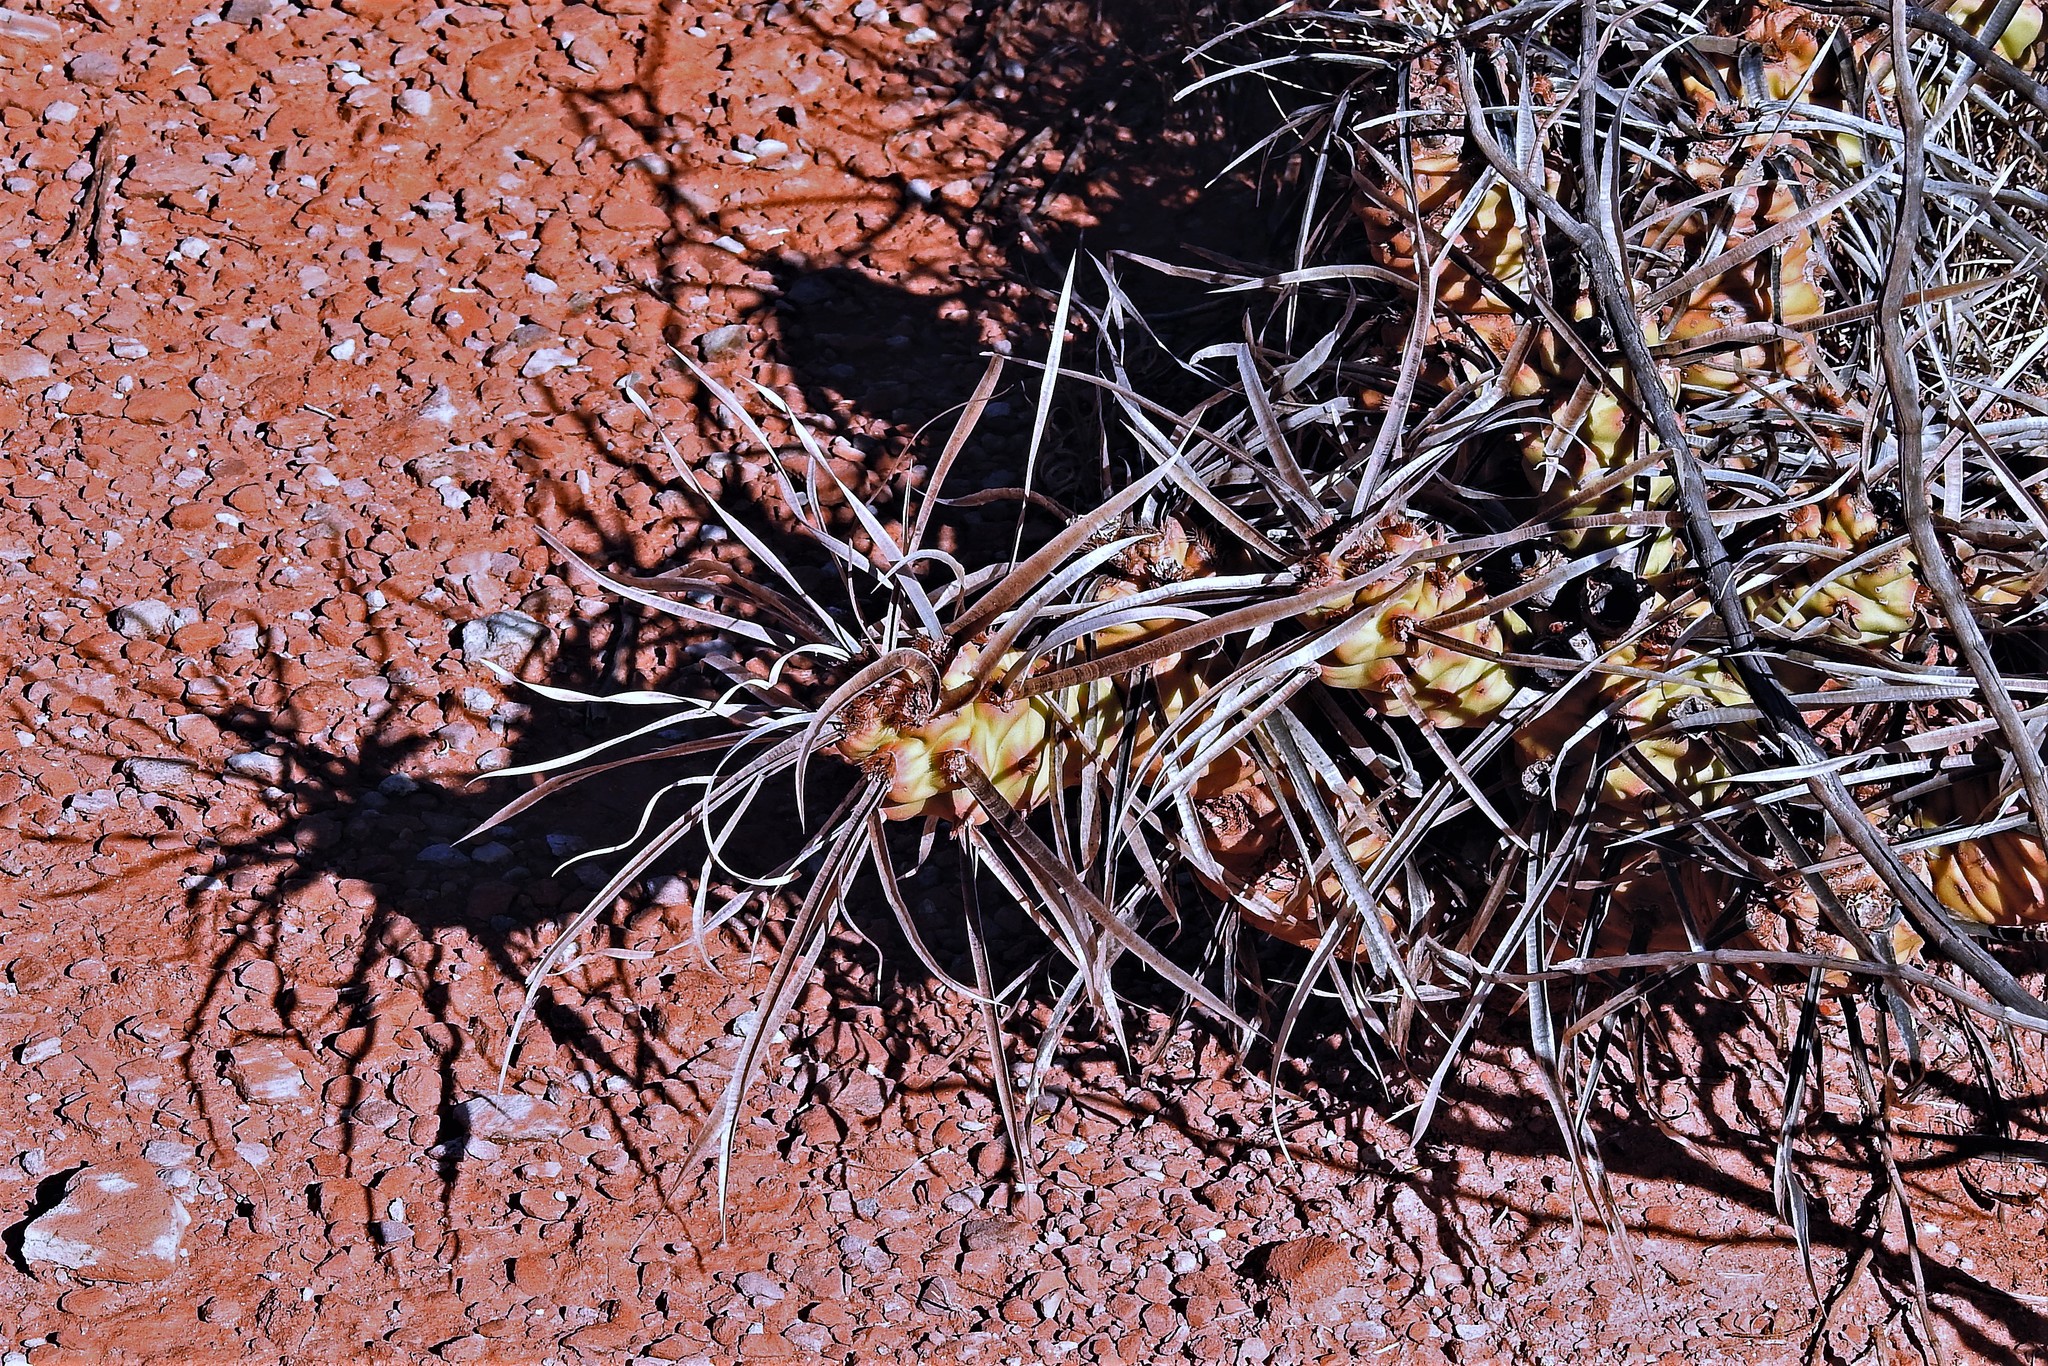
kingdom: Plantae
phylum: Tracheophyta
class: Magnoliopsida
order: Caryophyllales
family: Cactaceae
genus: Tephrocactus
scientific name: Tephrocactus articulatus
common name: Paper cactus
